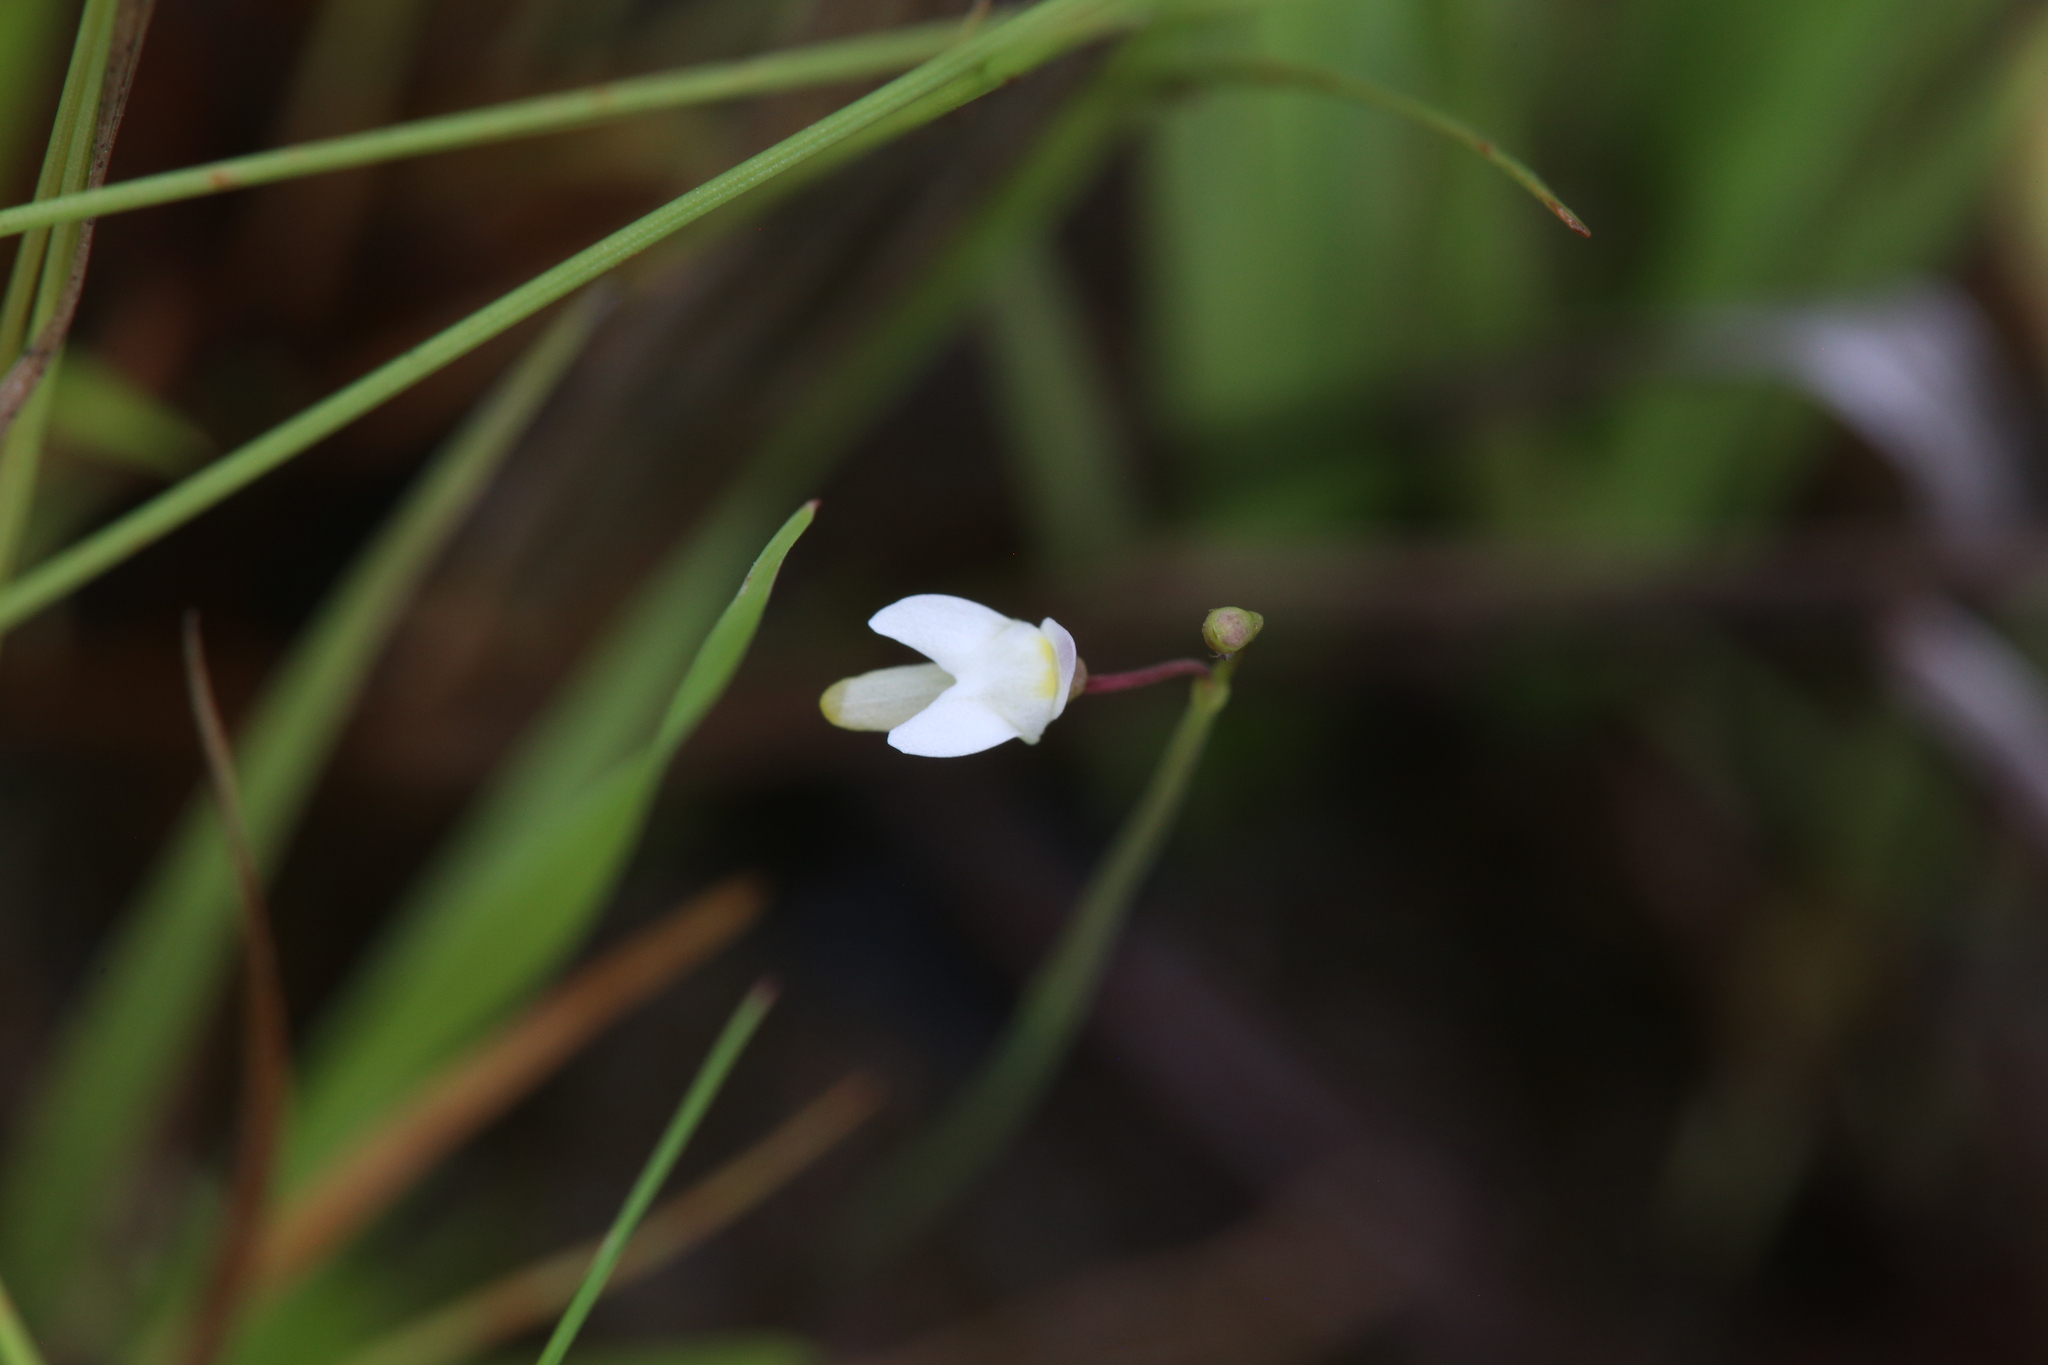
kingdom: Plantae
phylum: Tracheophyta
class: Magnoliopsida
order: Lamiales
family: Lentibulariaceae
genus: Utricularia
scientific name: Utricularia limosa
